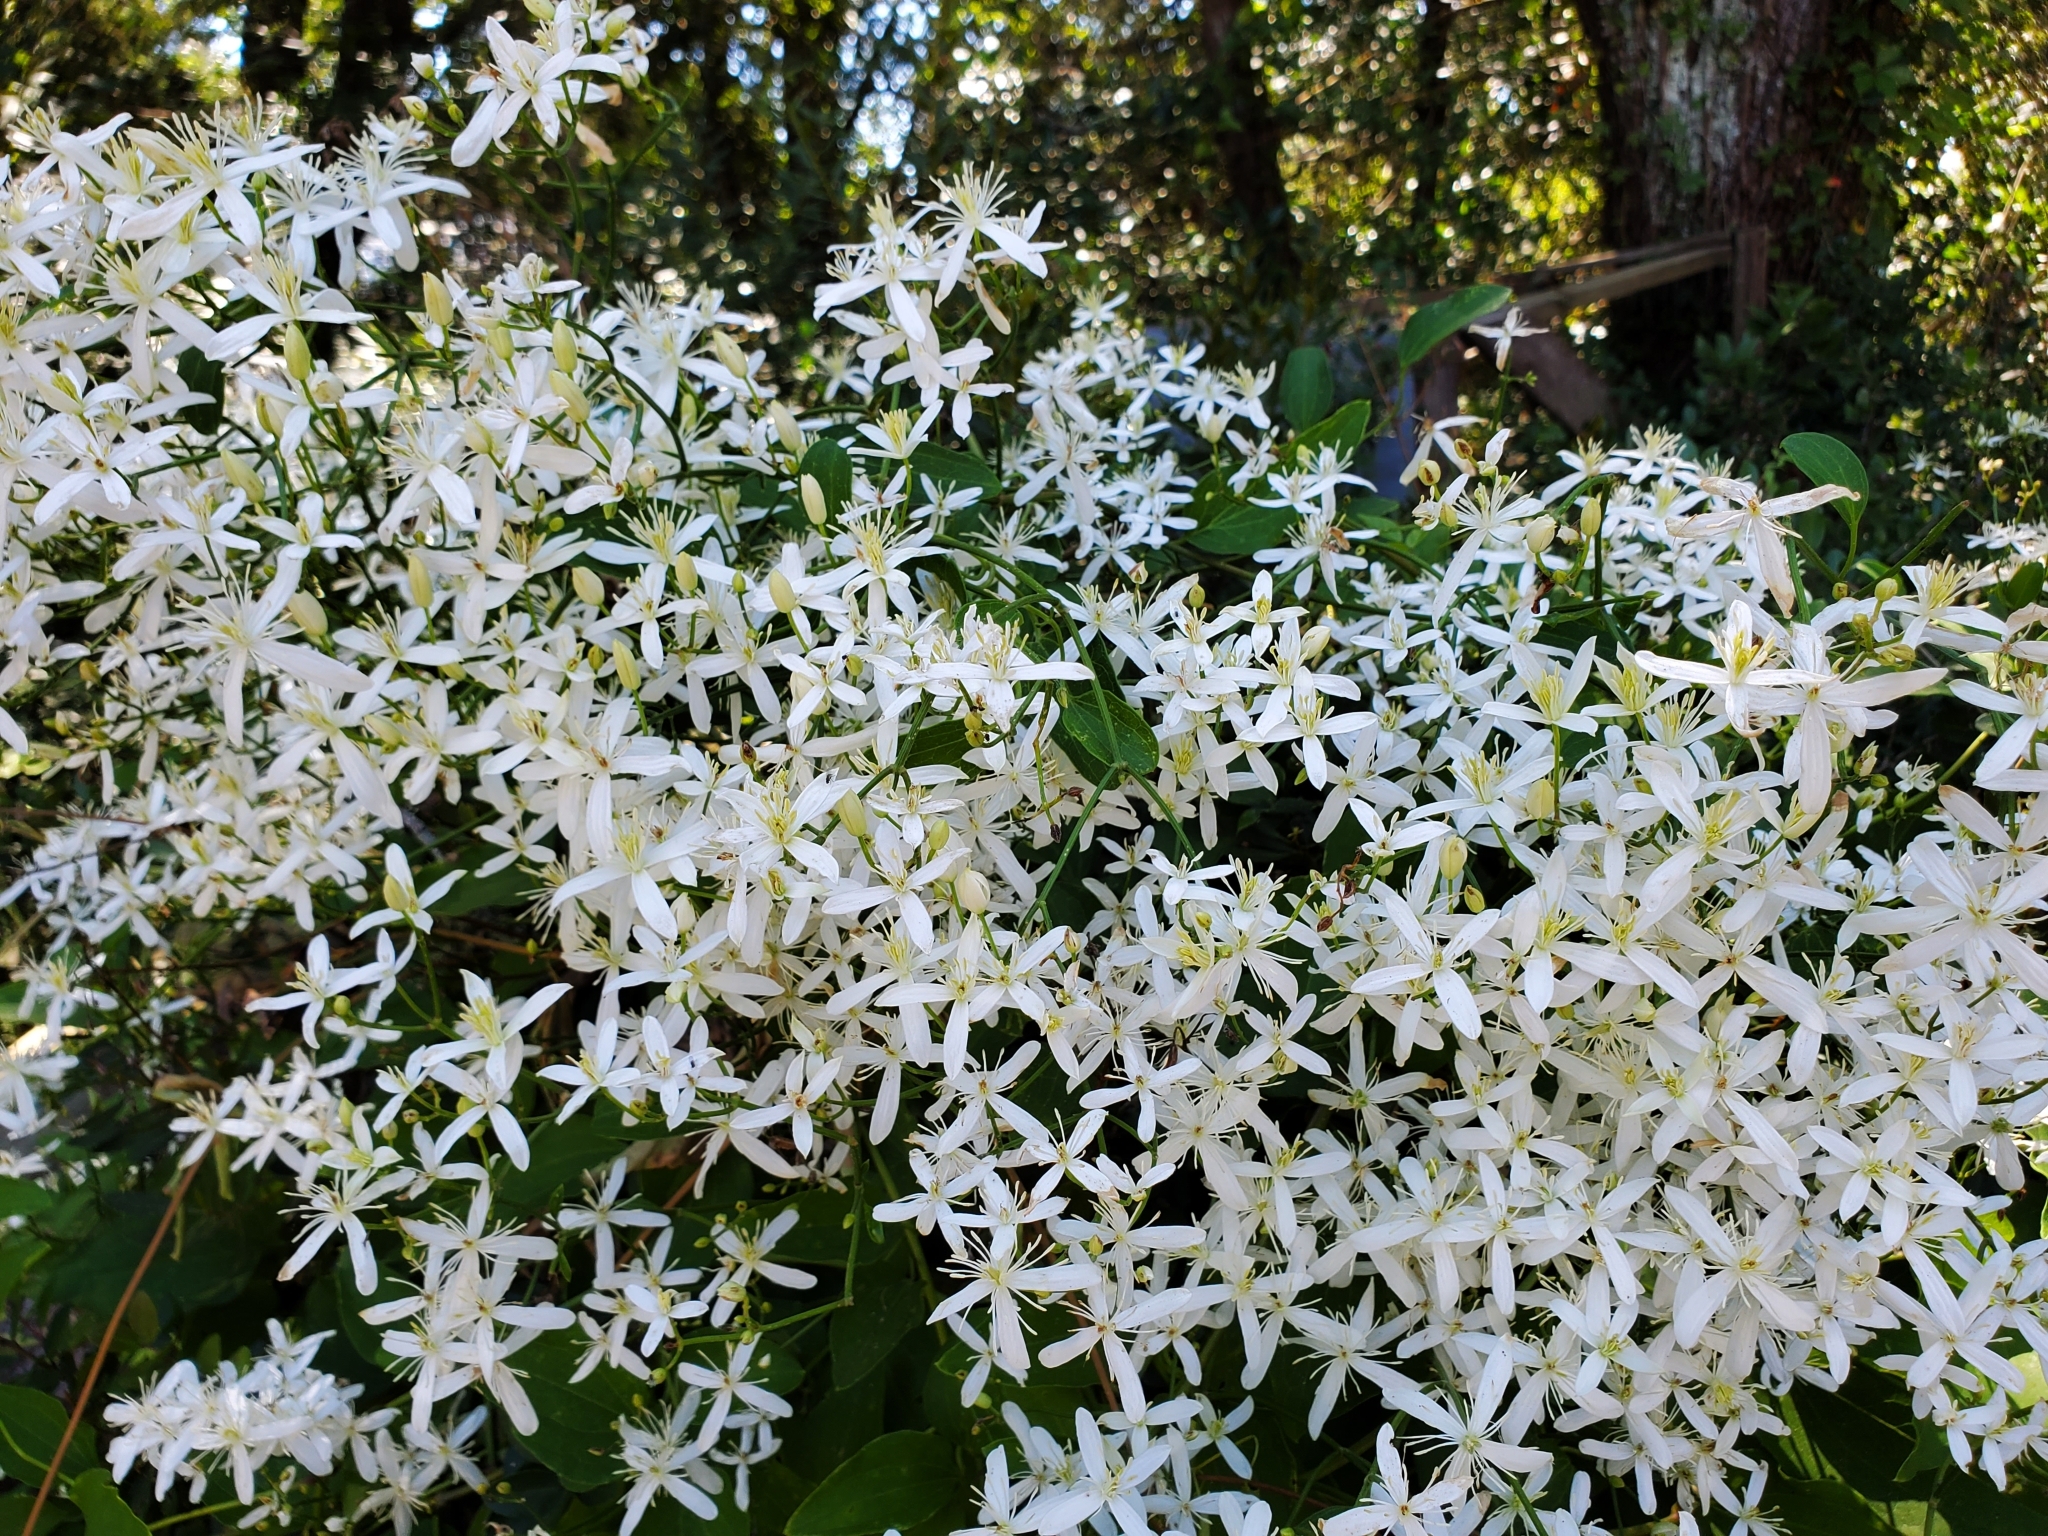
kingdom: Plantae
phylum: Tracheophyta
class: Magnoliopsida
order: Ranunculales
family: Ranunculaceae
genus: Clematis
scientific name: Clematis terniflora
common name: Sweet autumn clematis
